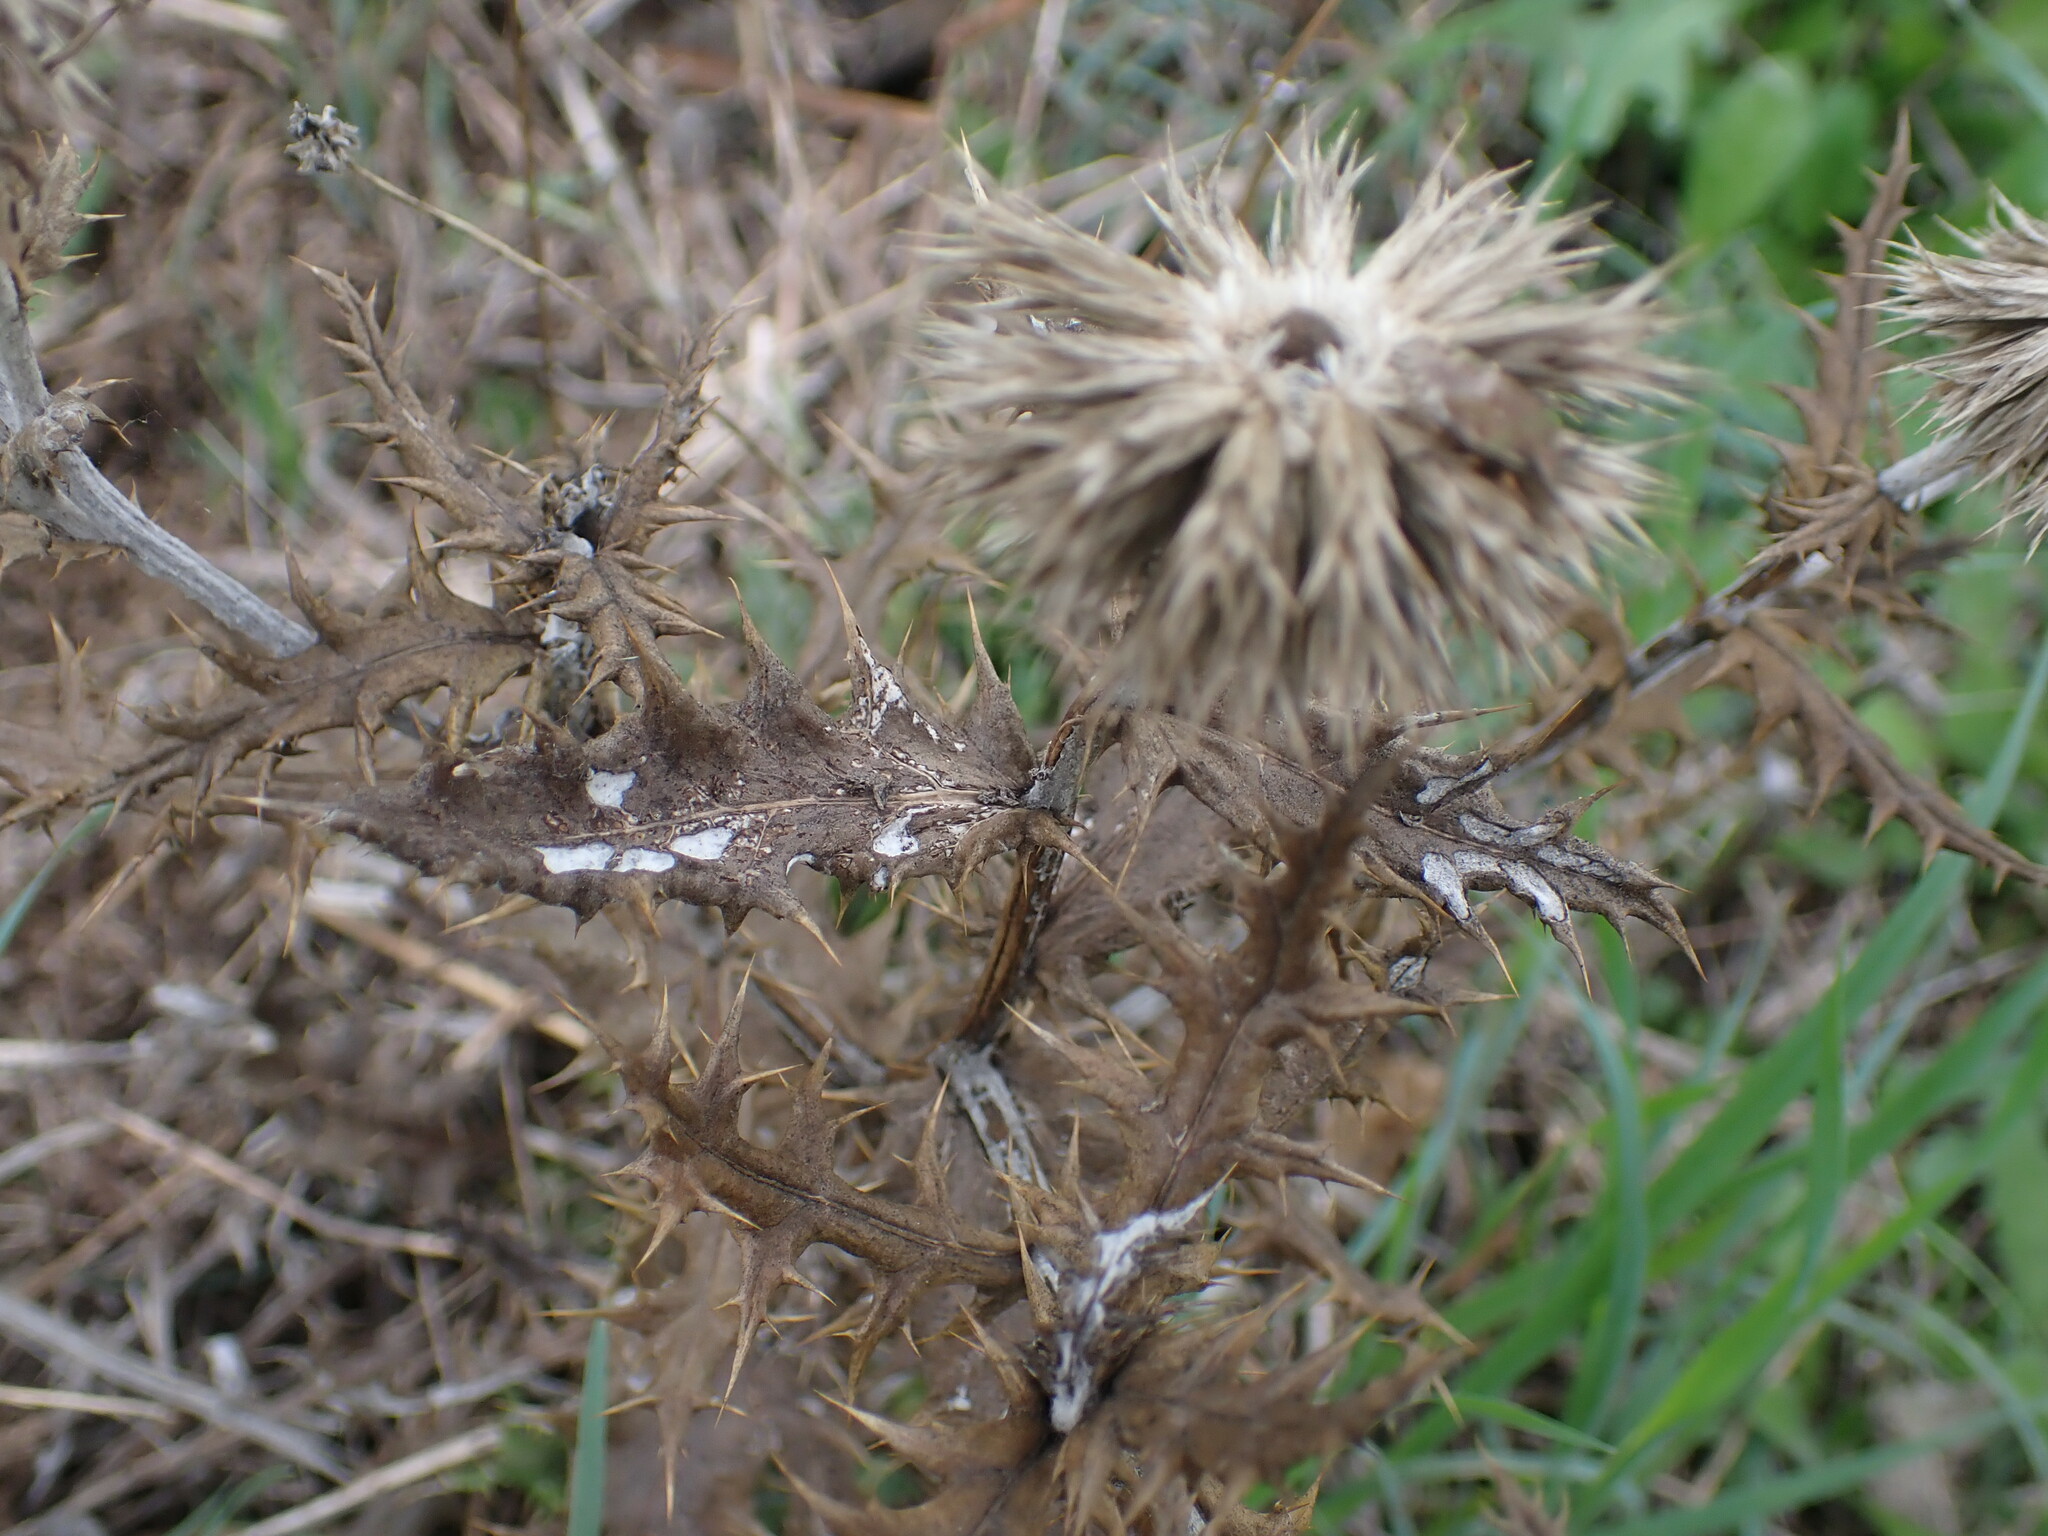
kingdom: Plantae
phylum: Tracheophyta
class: Magnoliopsida
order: Asterales
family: Asteraceae
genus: Echinops
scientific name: Echinops ritro
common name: Globe thistle
